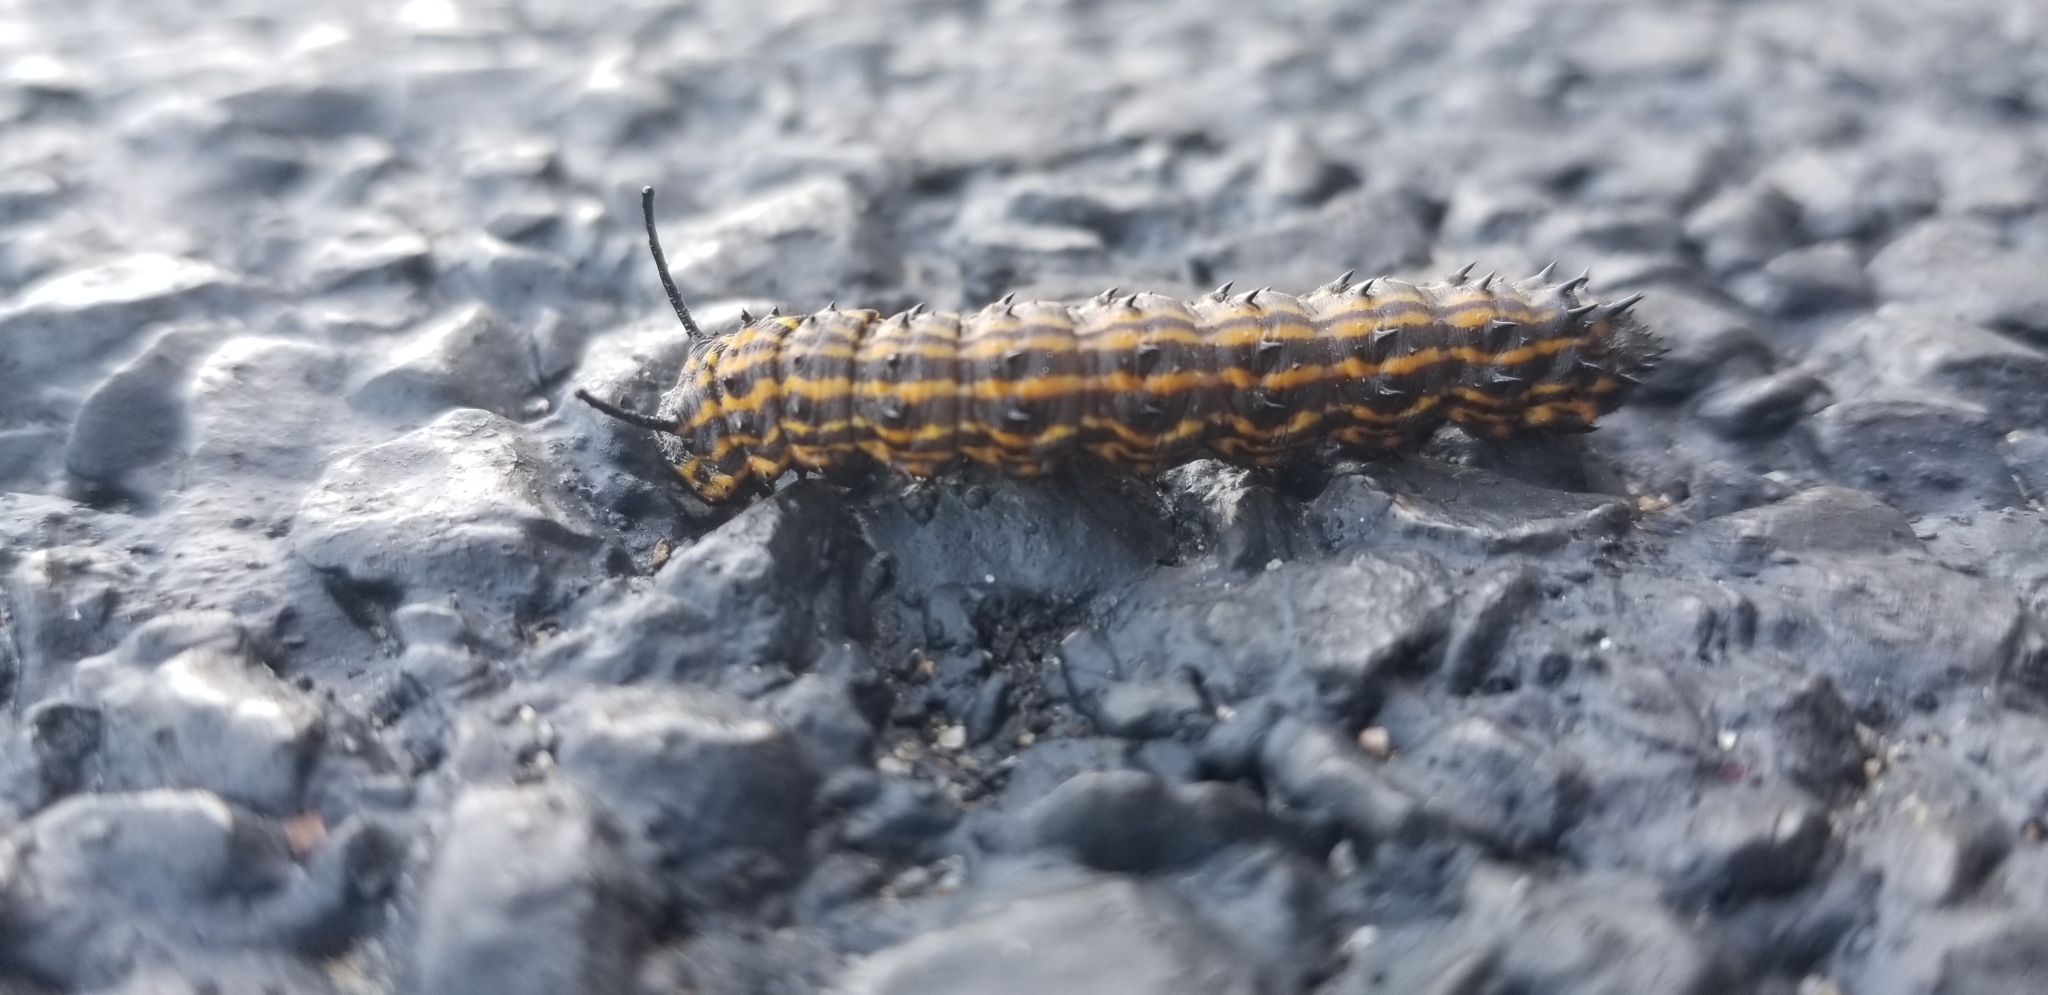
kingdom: Animalia
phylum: Arthropoda
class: Insecta
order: Lepidoptera
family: Saturniidae
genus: Anisota
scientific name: Anisota senatoria
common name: Orange-striped oakworm moth
